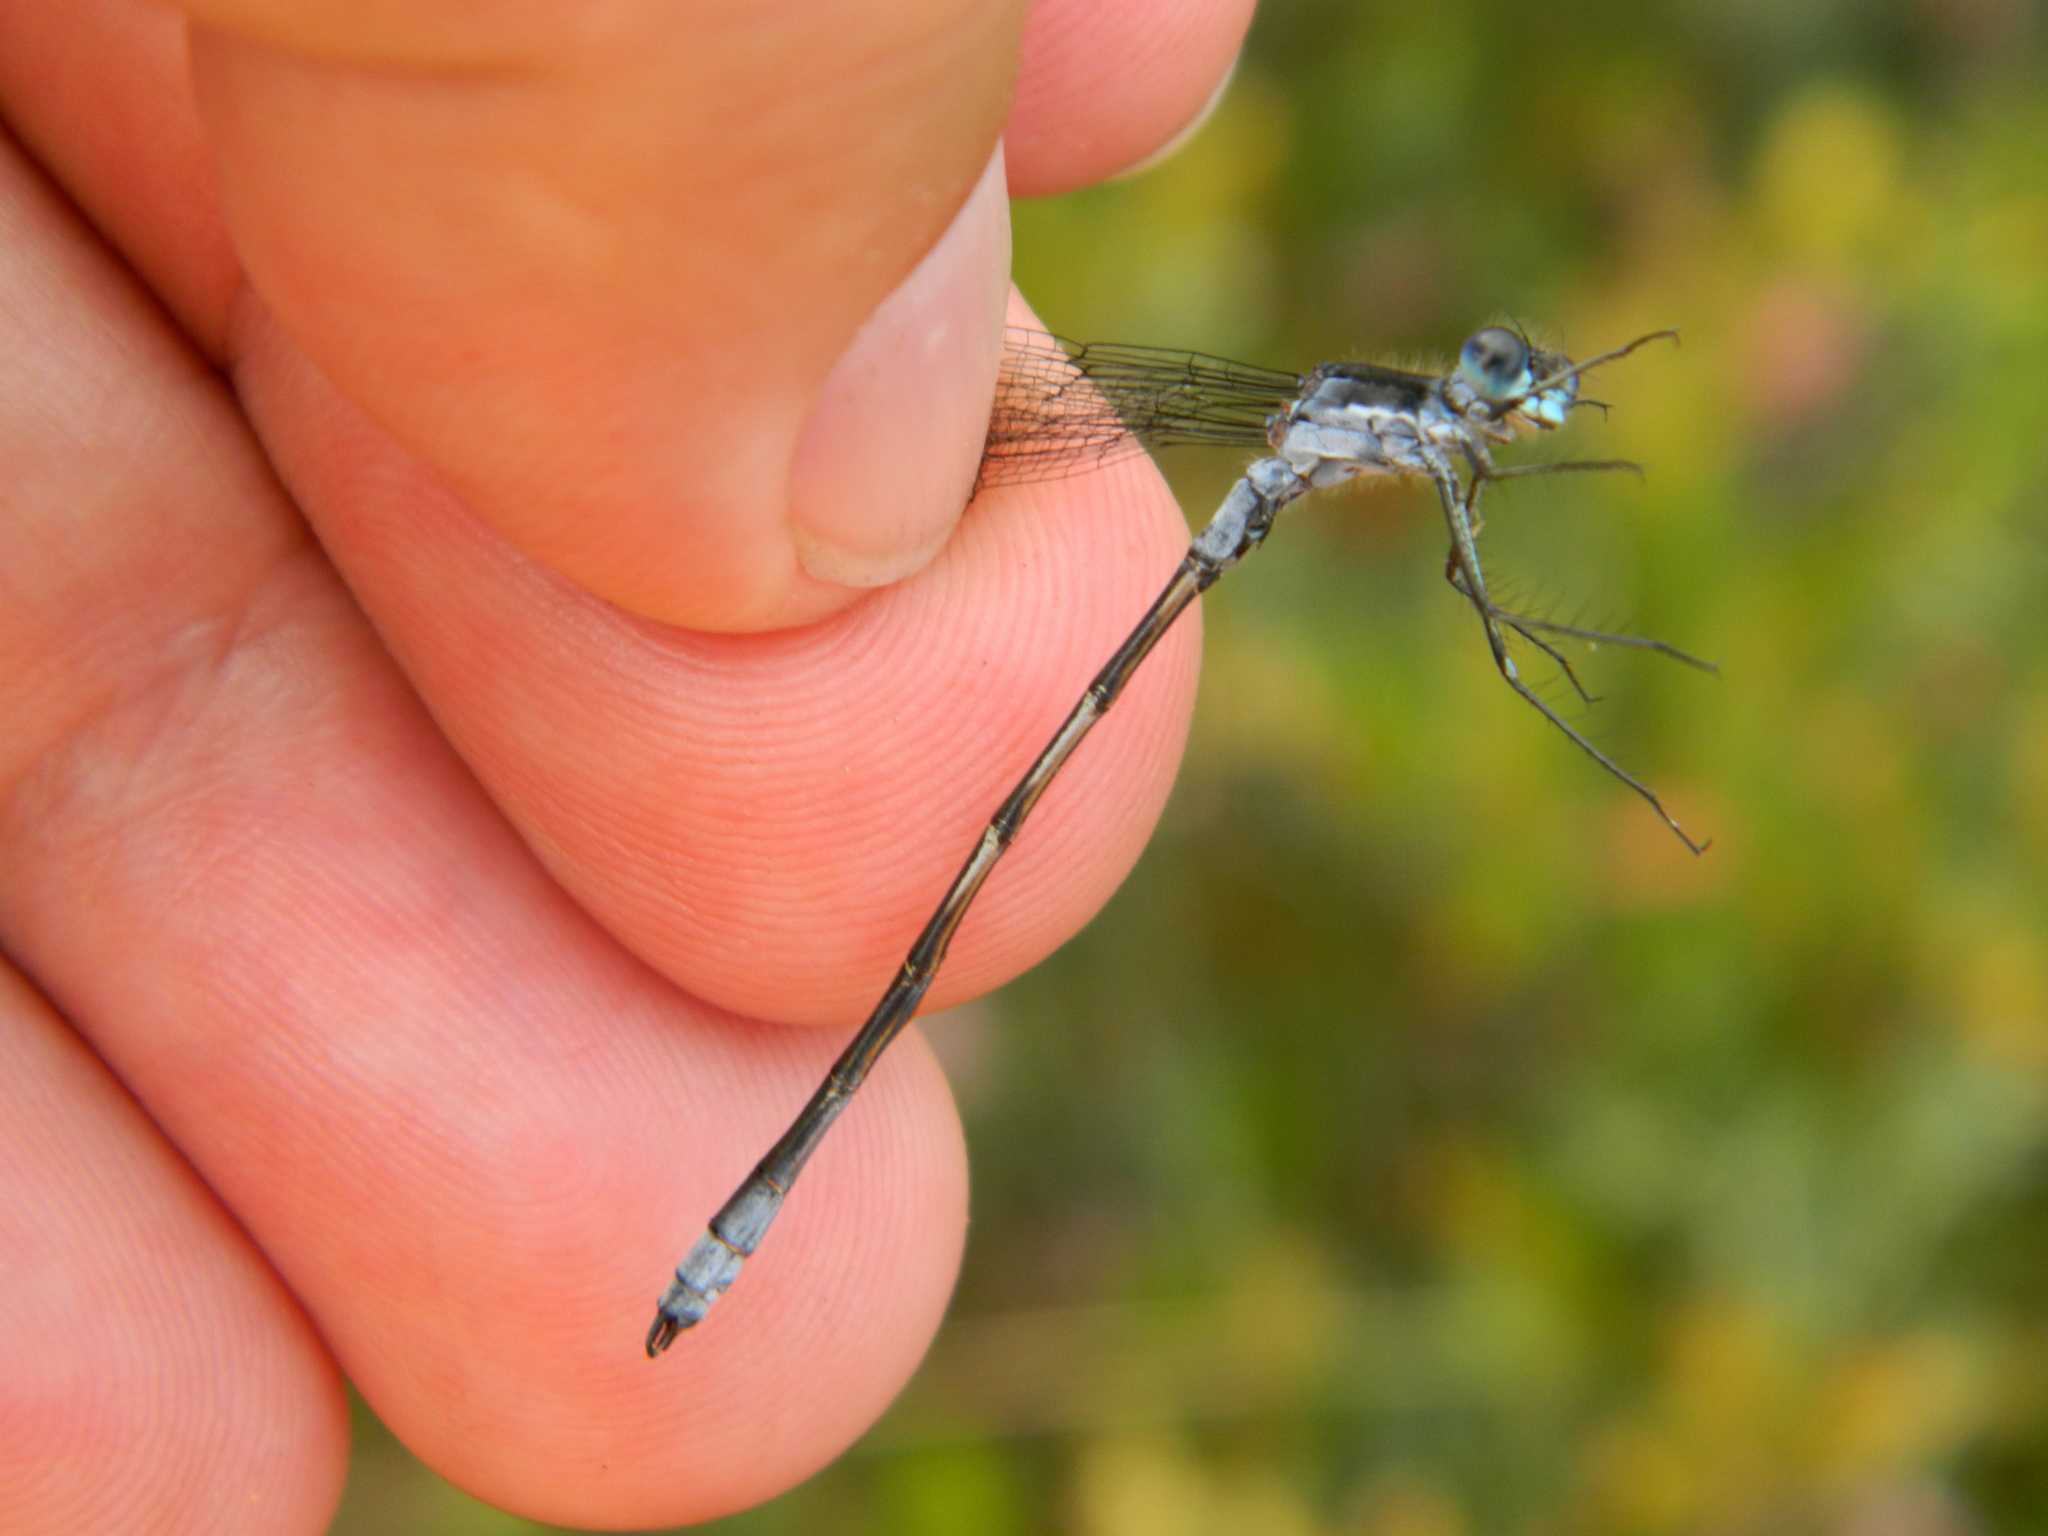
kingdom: Animalia
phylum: Arthropoda
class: Insecta
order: Odonata
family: Lestidae
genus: Lestes
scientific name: Lestes disjunctus
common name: Northern spreadwing
